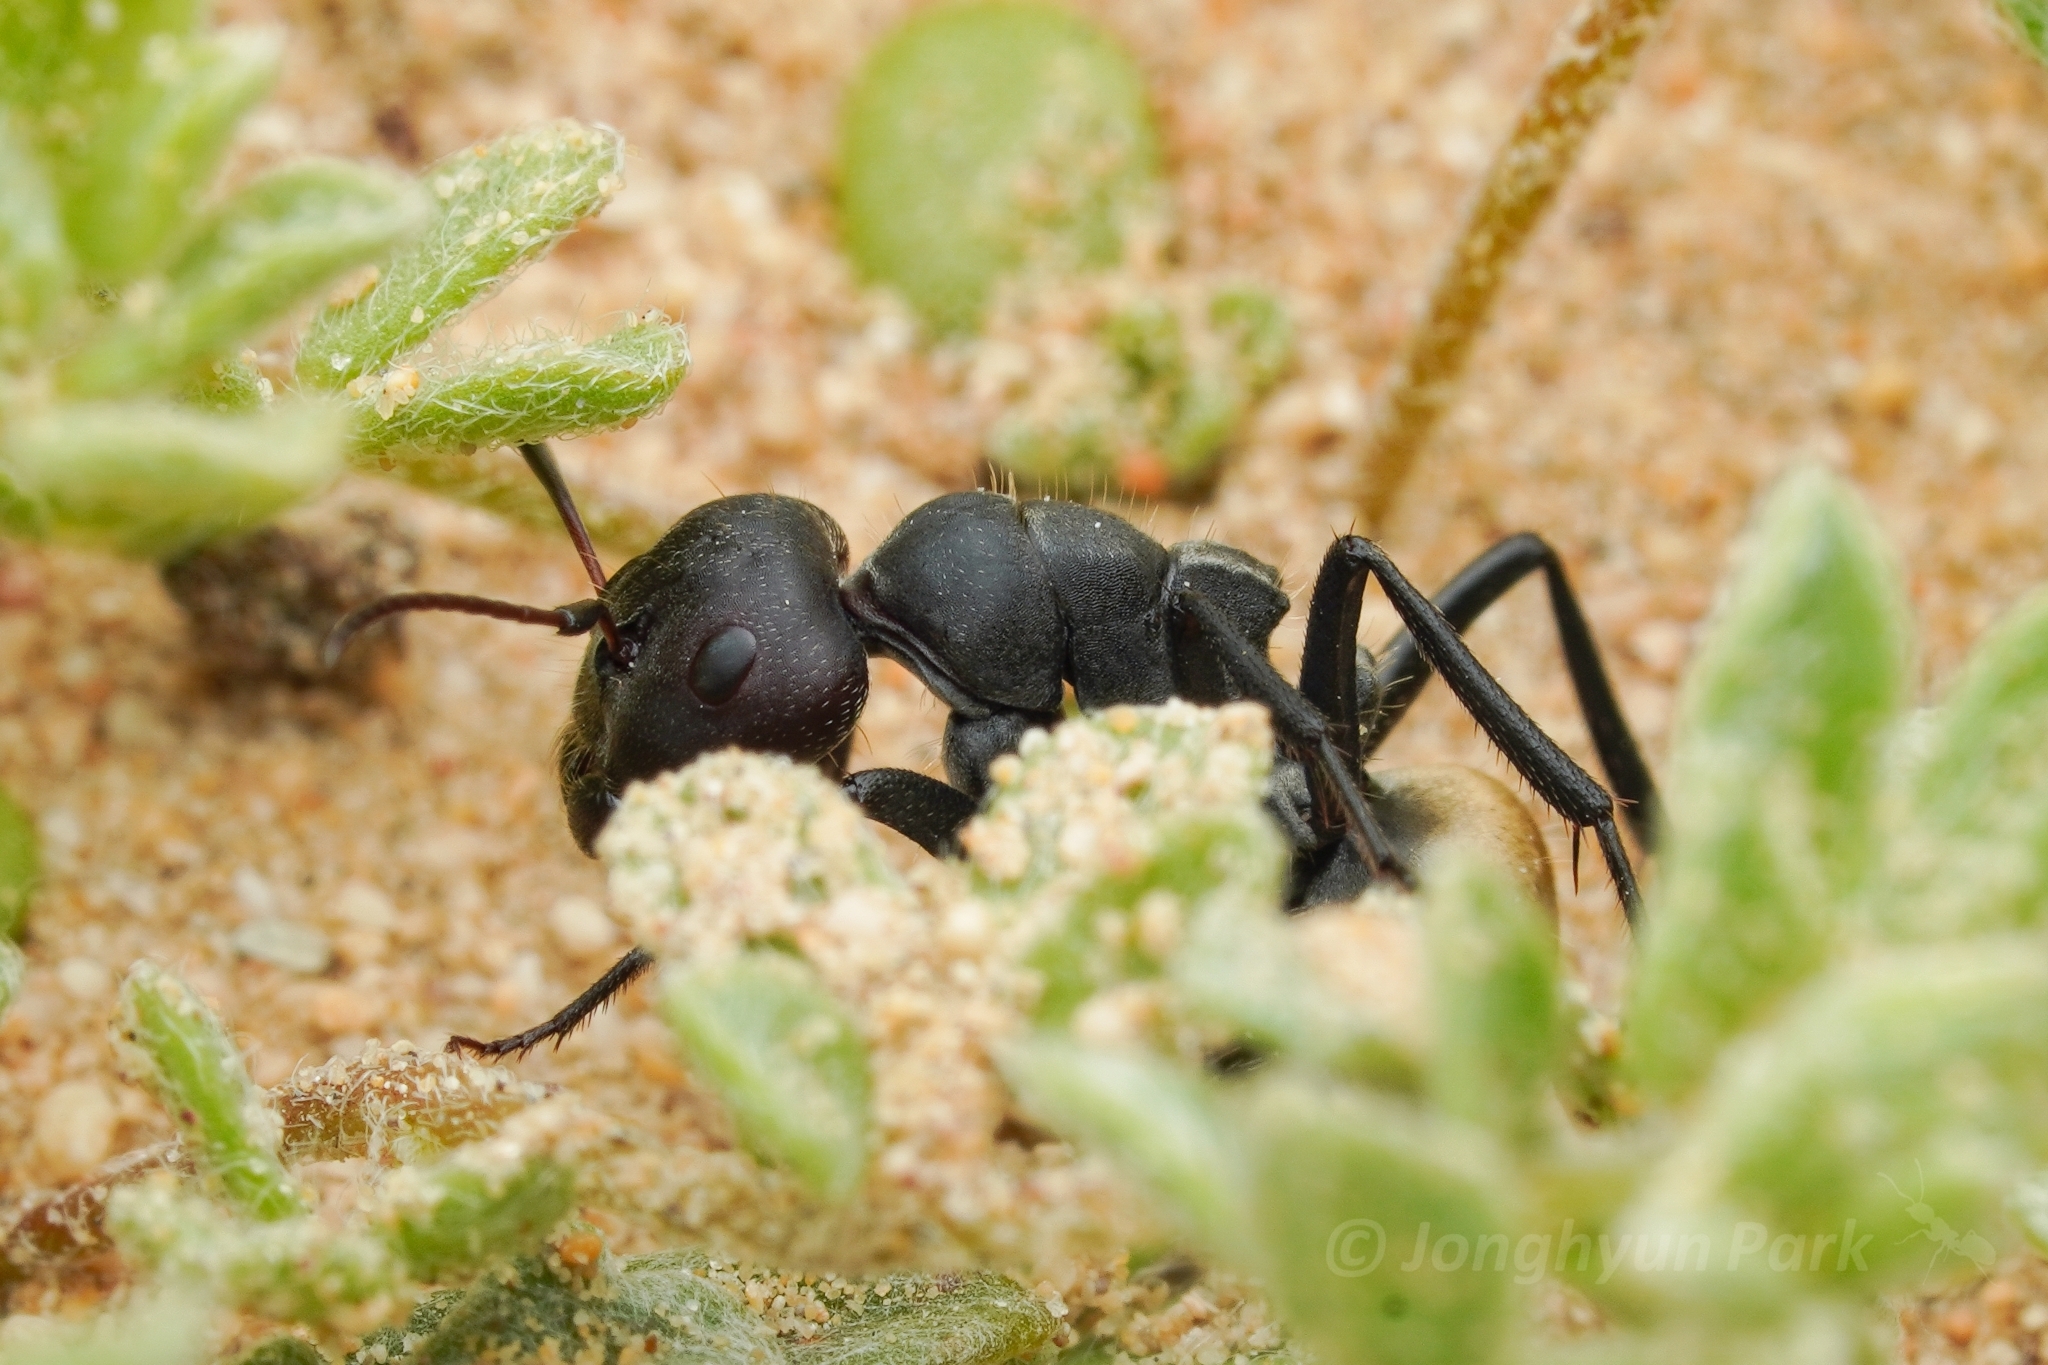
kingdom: Animalia
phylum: Arthropoda
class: Insecta
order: Hymenoptera
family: Formicidae
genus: Camponotus
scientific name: Camponotus sericeus
